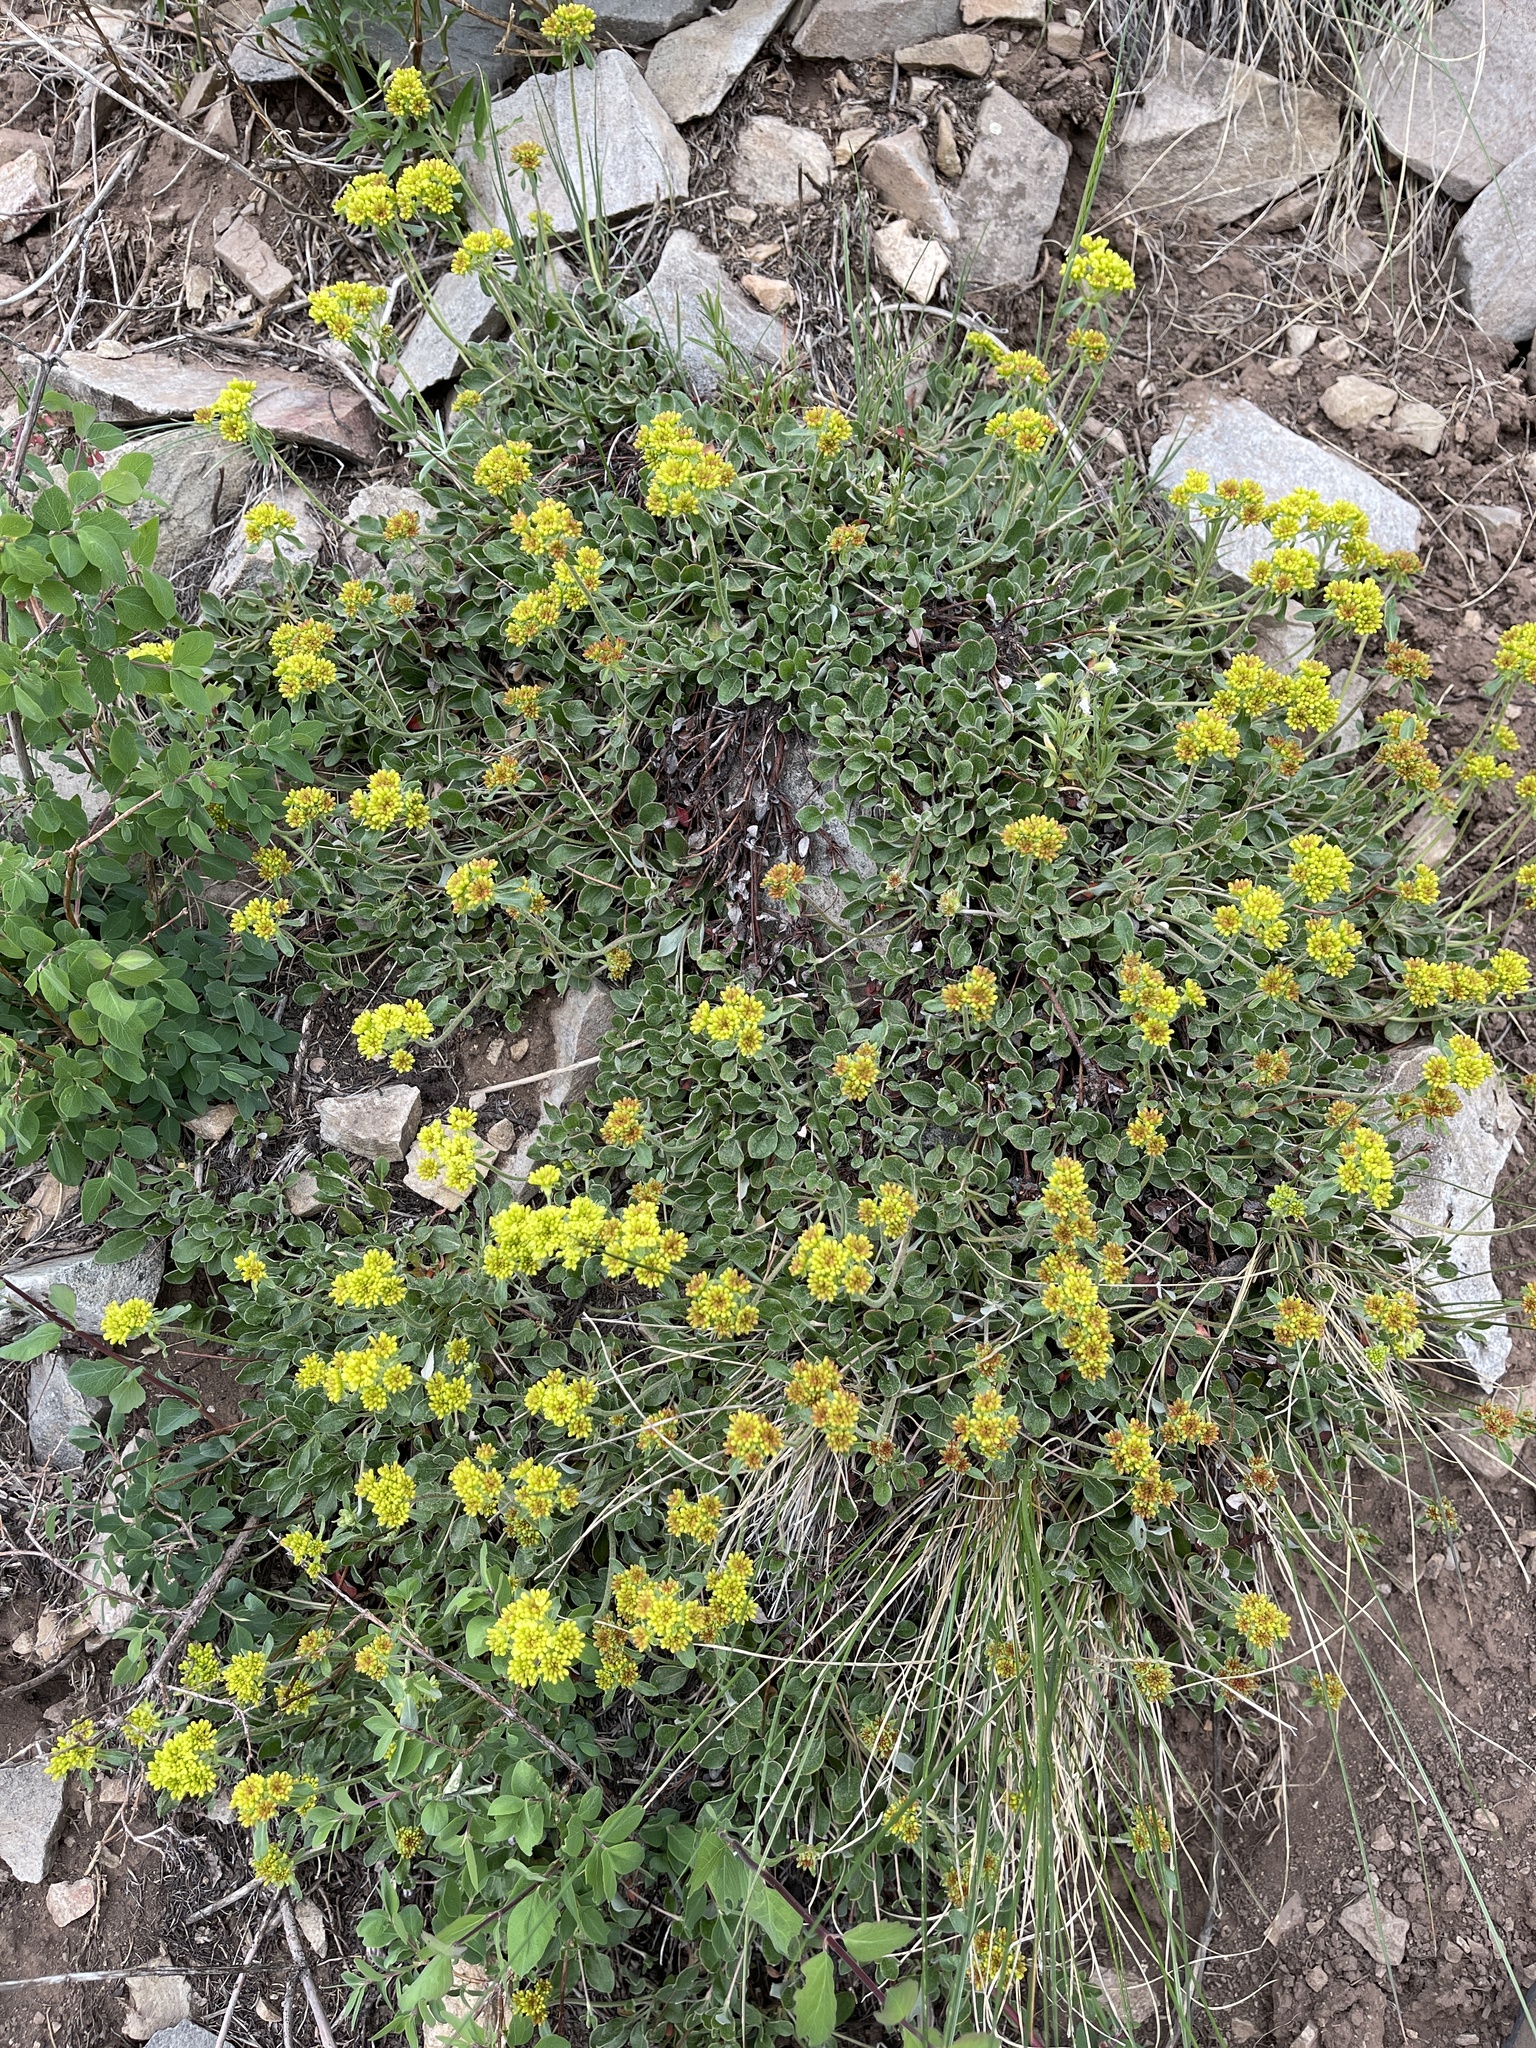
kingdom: Plantae
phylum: Tracheophyta
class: Magnoliopsida
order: Caryophyllales
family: Polygonaceae
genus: Eriogonum
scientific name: Eriogonum umbellatum
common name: Sulfur-buckwheat
